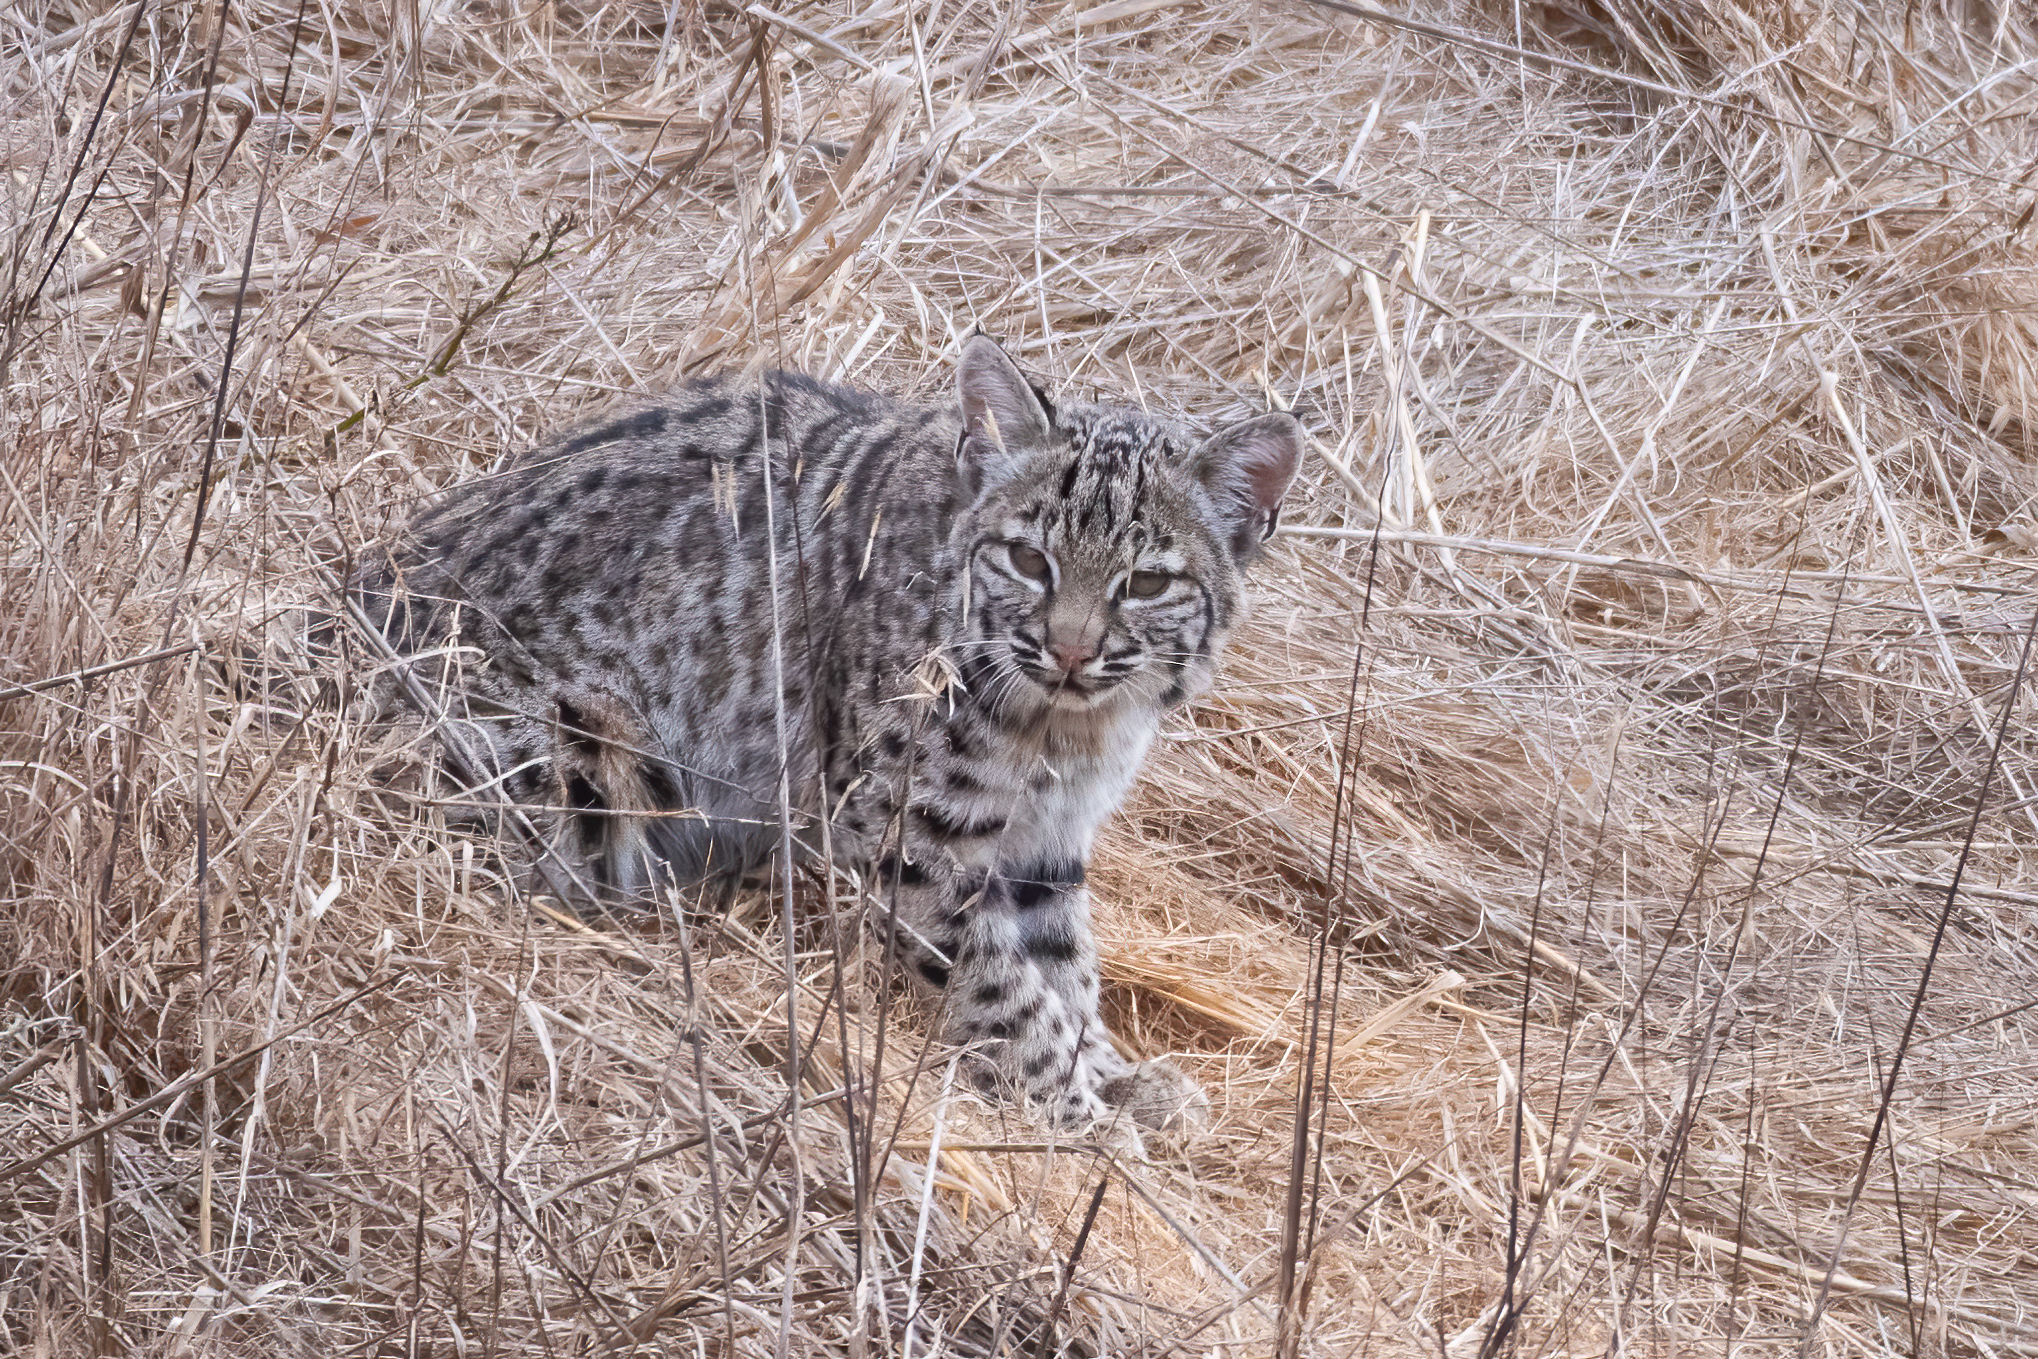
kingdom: Animalia
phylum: Chordata
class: Mammalia
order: Carnivora
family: Felidae
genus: Lynx
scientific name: Lynx rufus
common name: Bobcat
